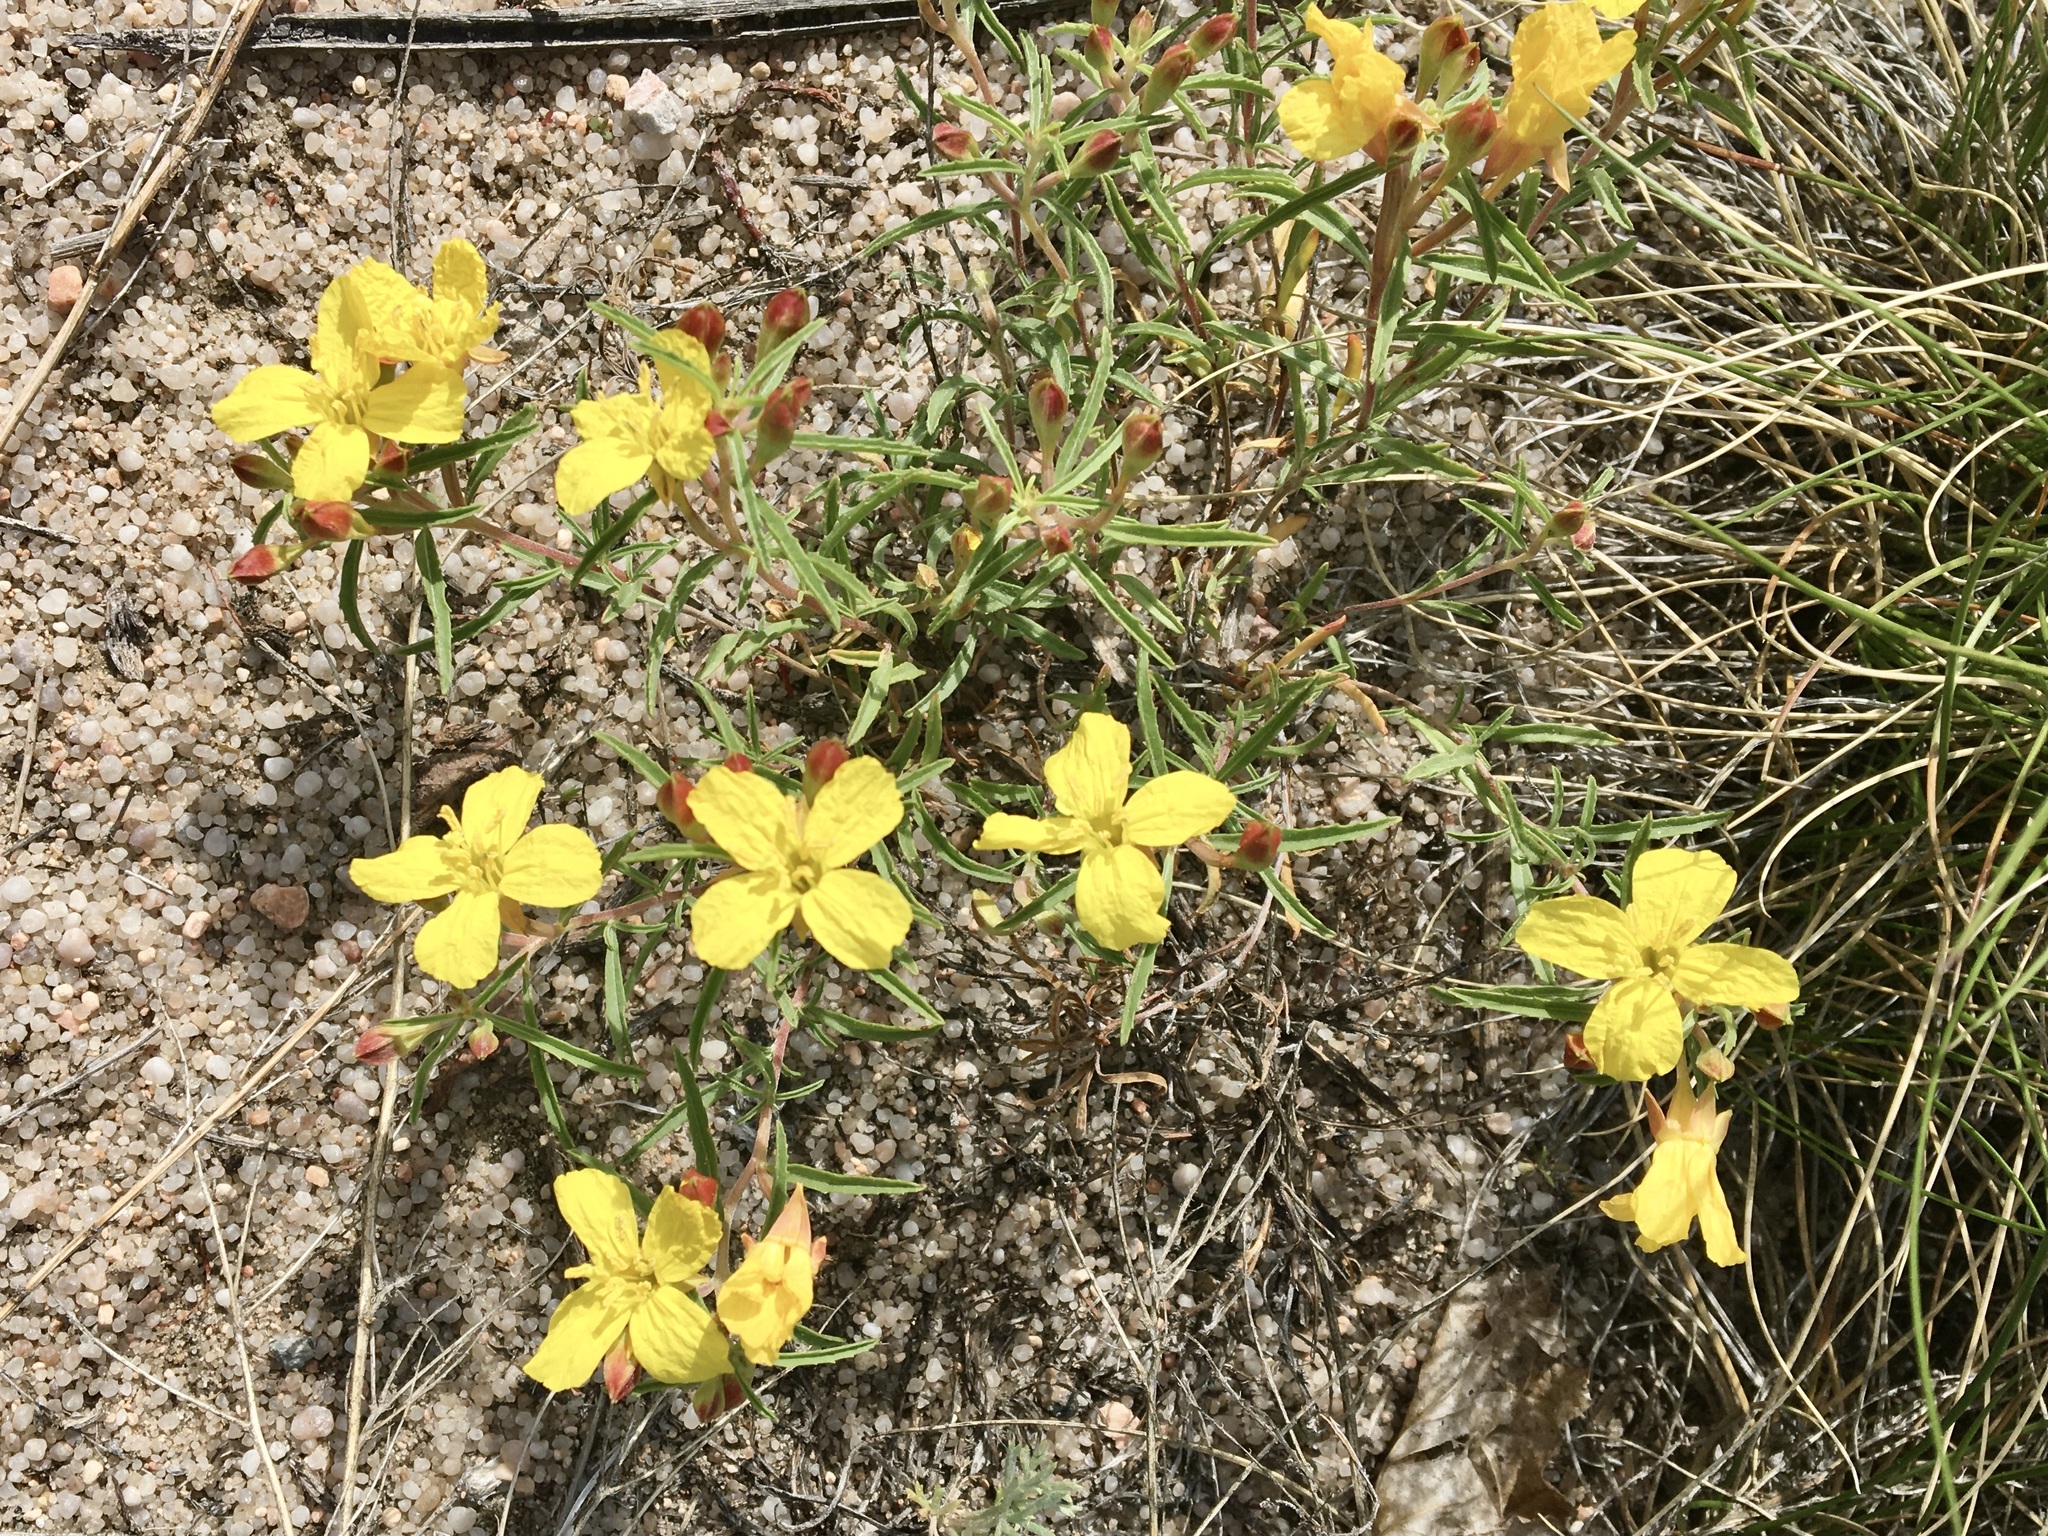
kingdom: Plantae
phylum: Tracheophyta
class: Magnoliopsida
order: Myrtales
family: Onagraceae
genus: Oenothera
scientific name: Oenothera serrulata
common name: Half-shrub calylophus
